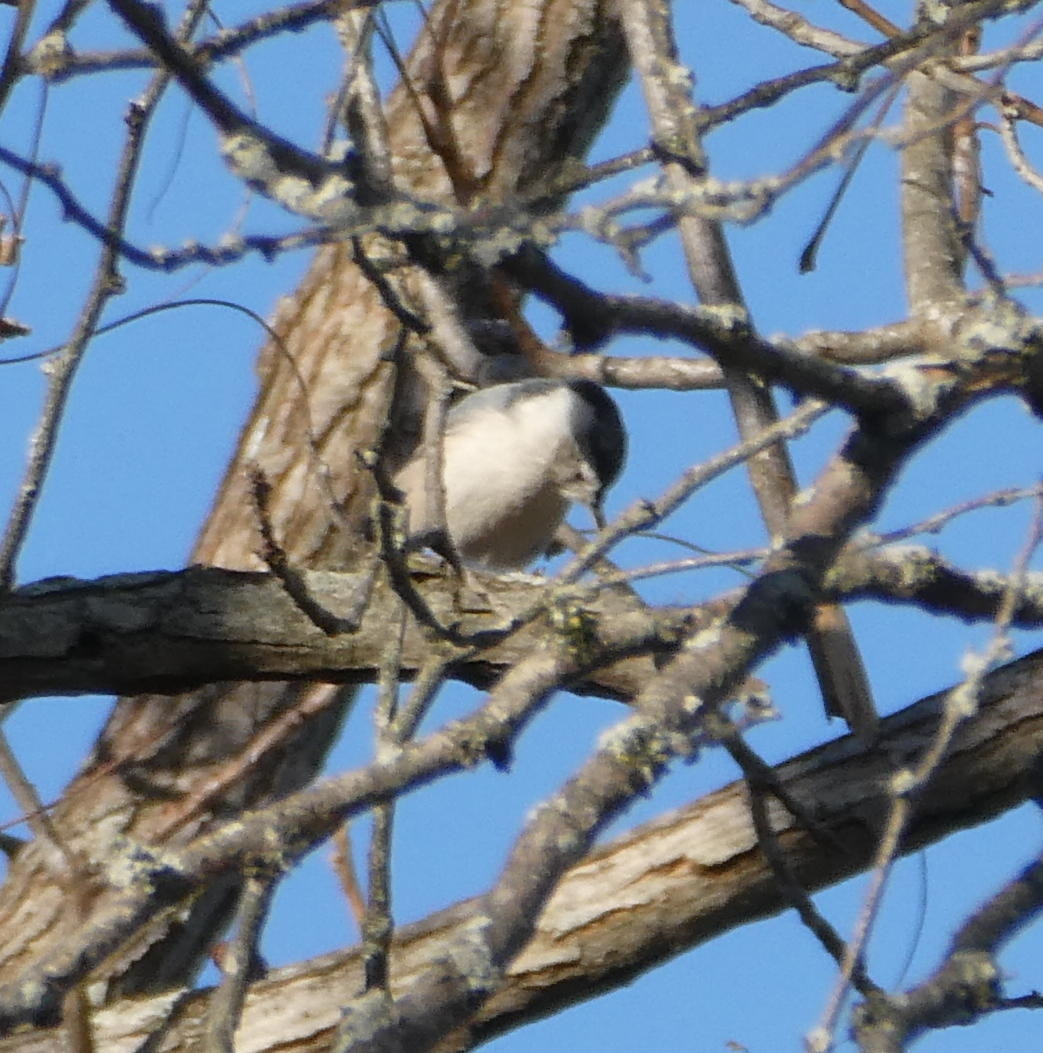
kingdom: Animalia
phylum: Chordata
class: Aves
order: Passeriformes
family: Paridae
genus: Poecile
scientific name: Poecile atricapillus
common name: Black-capped chickadee
